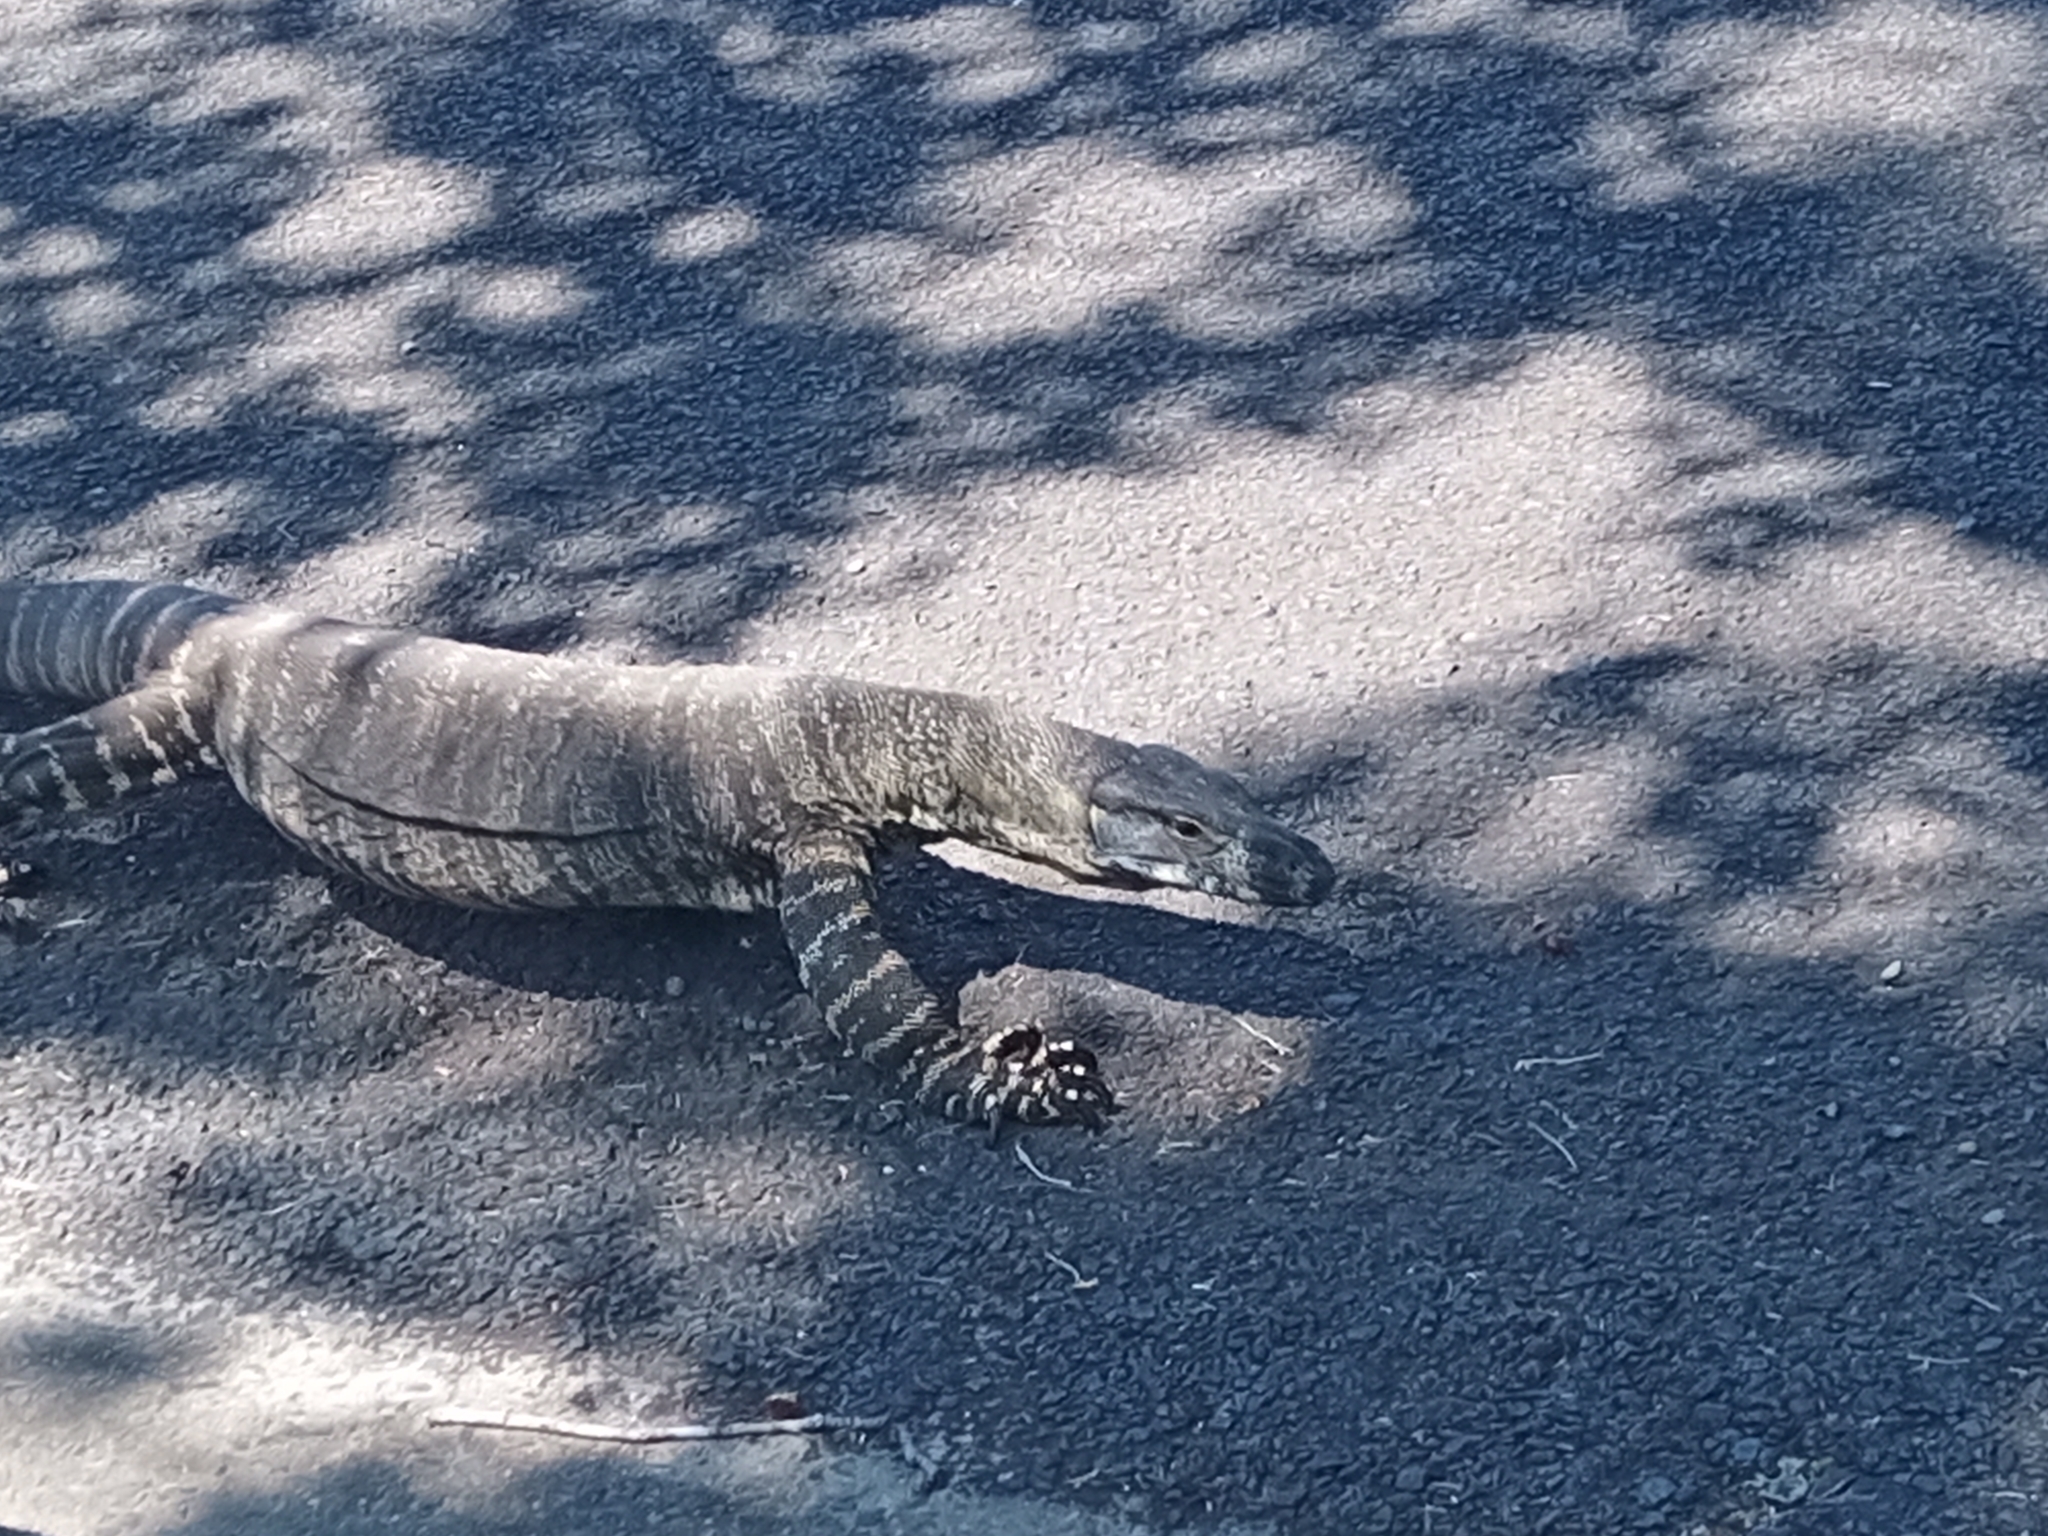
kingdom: Animalia
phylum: Chordata
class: Squamata
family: Varanidae
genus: Varanus
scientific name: Varanus varius
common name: Lace monitor
